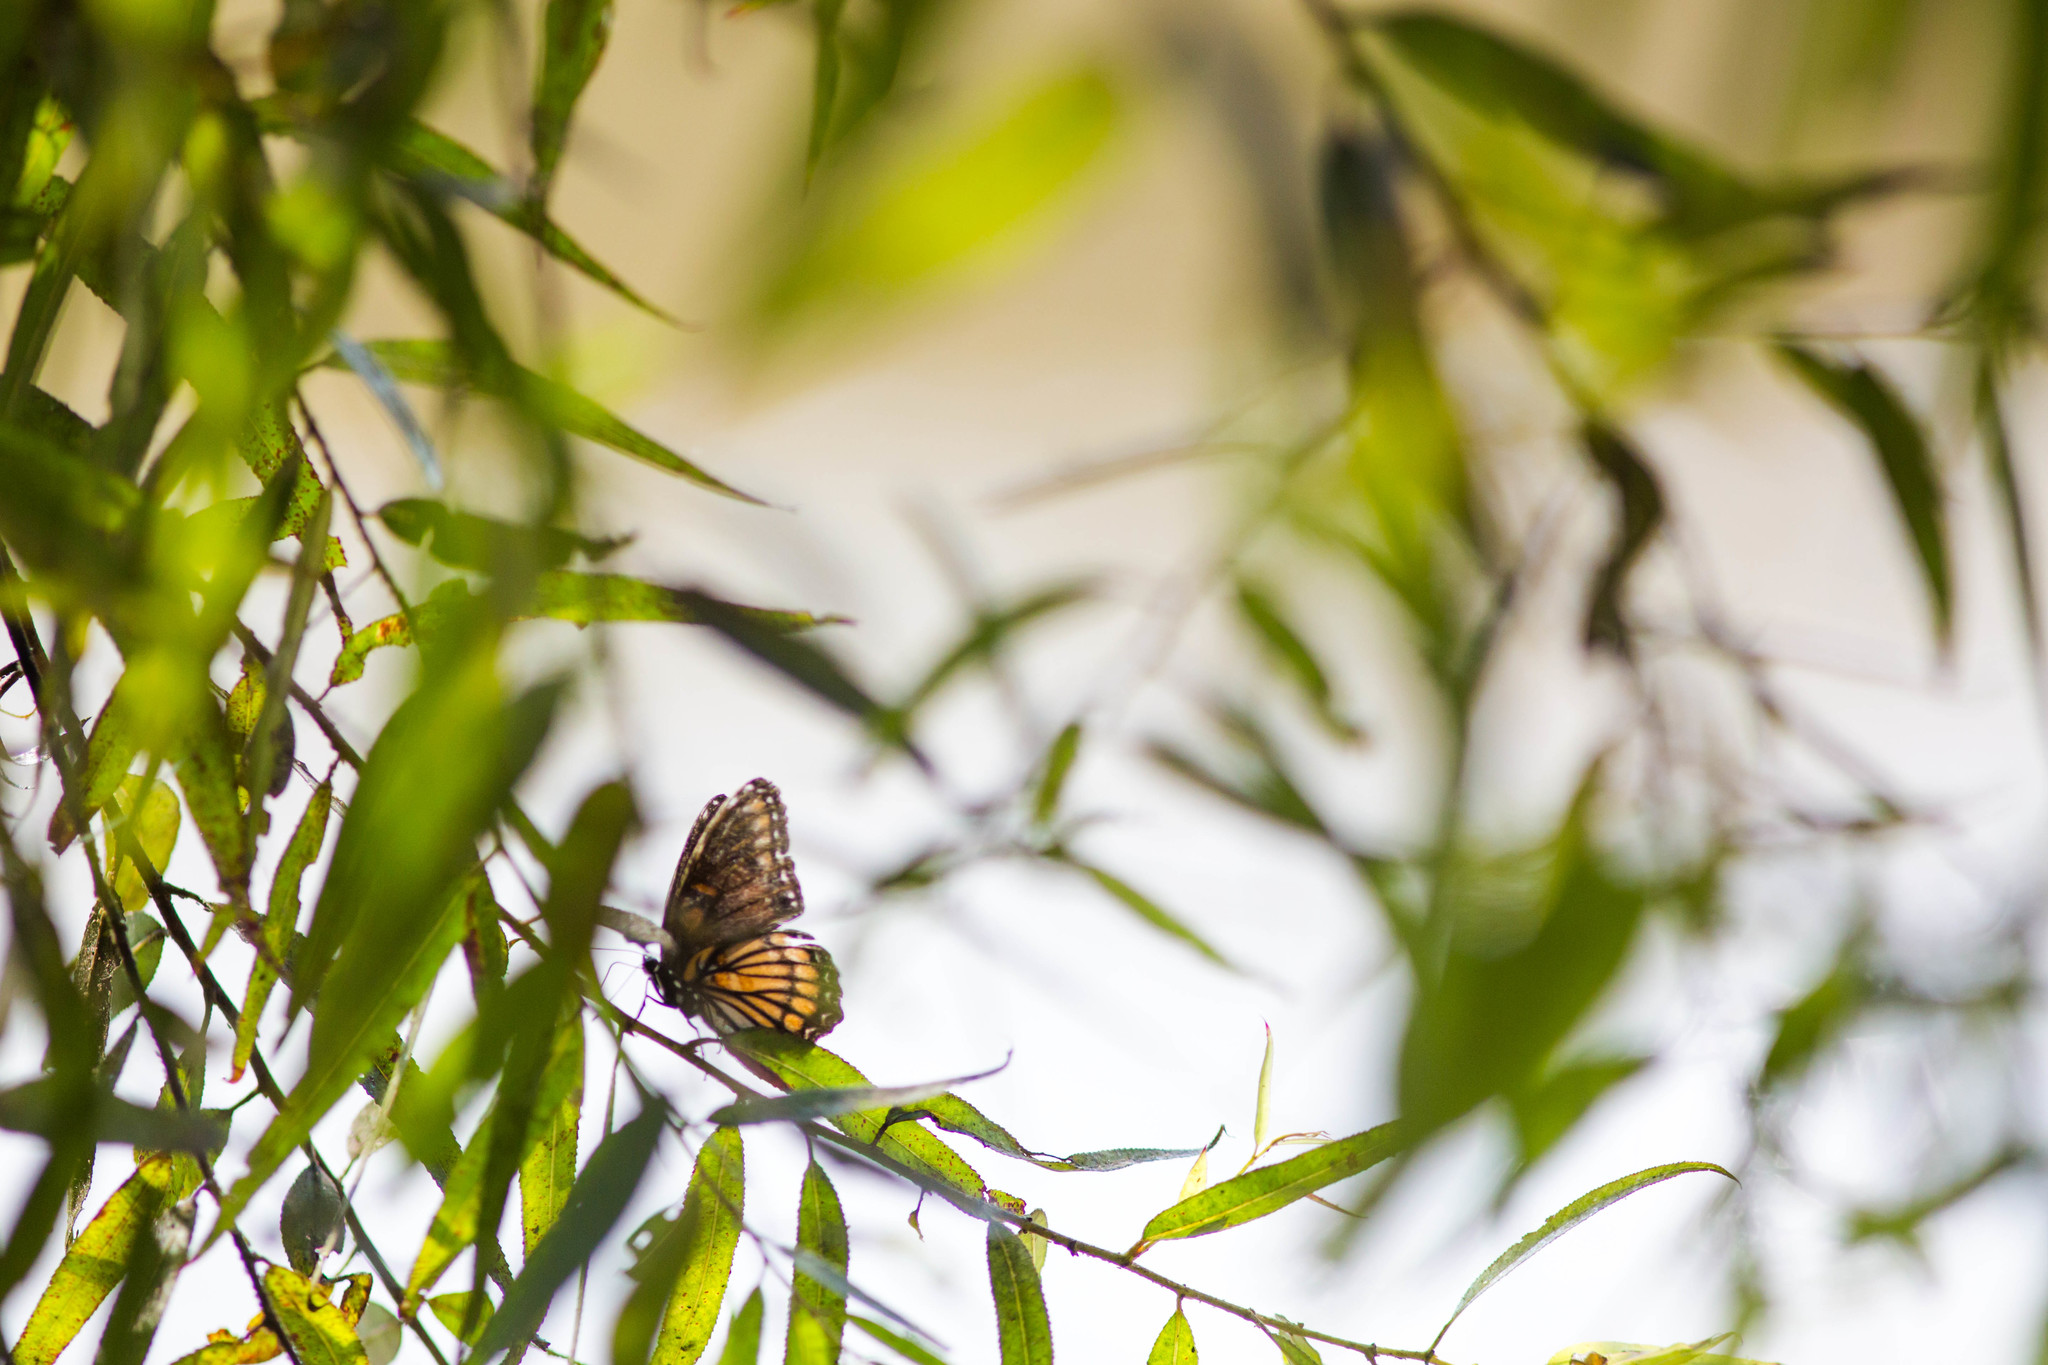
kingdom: Animalia
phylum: Arthropoda
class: Insecta
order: Lepidoptera
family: Nymphalidae
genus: Limenitis
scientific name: Limenitis archippus
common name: Viceroy
